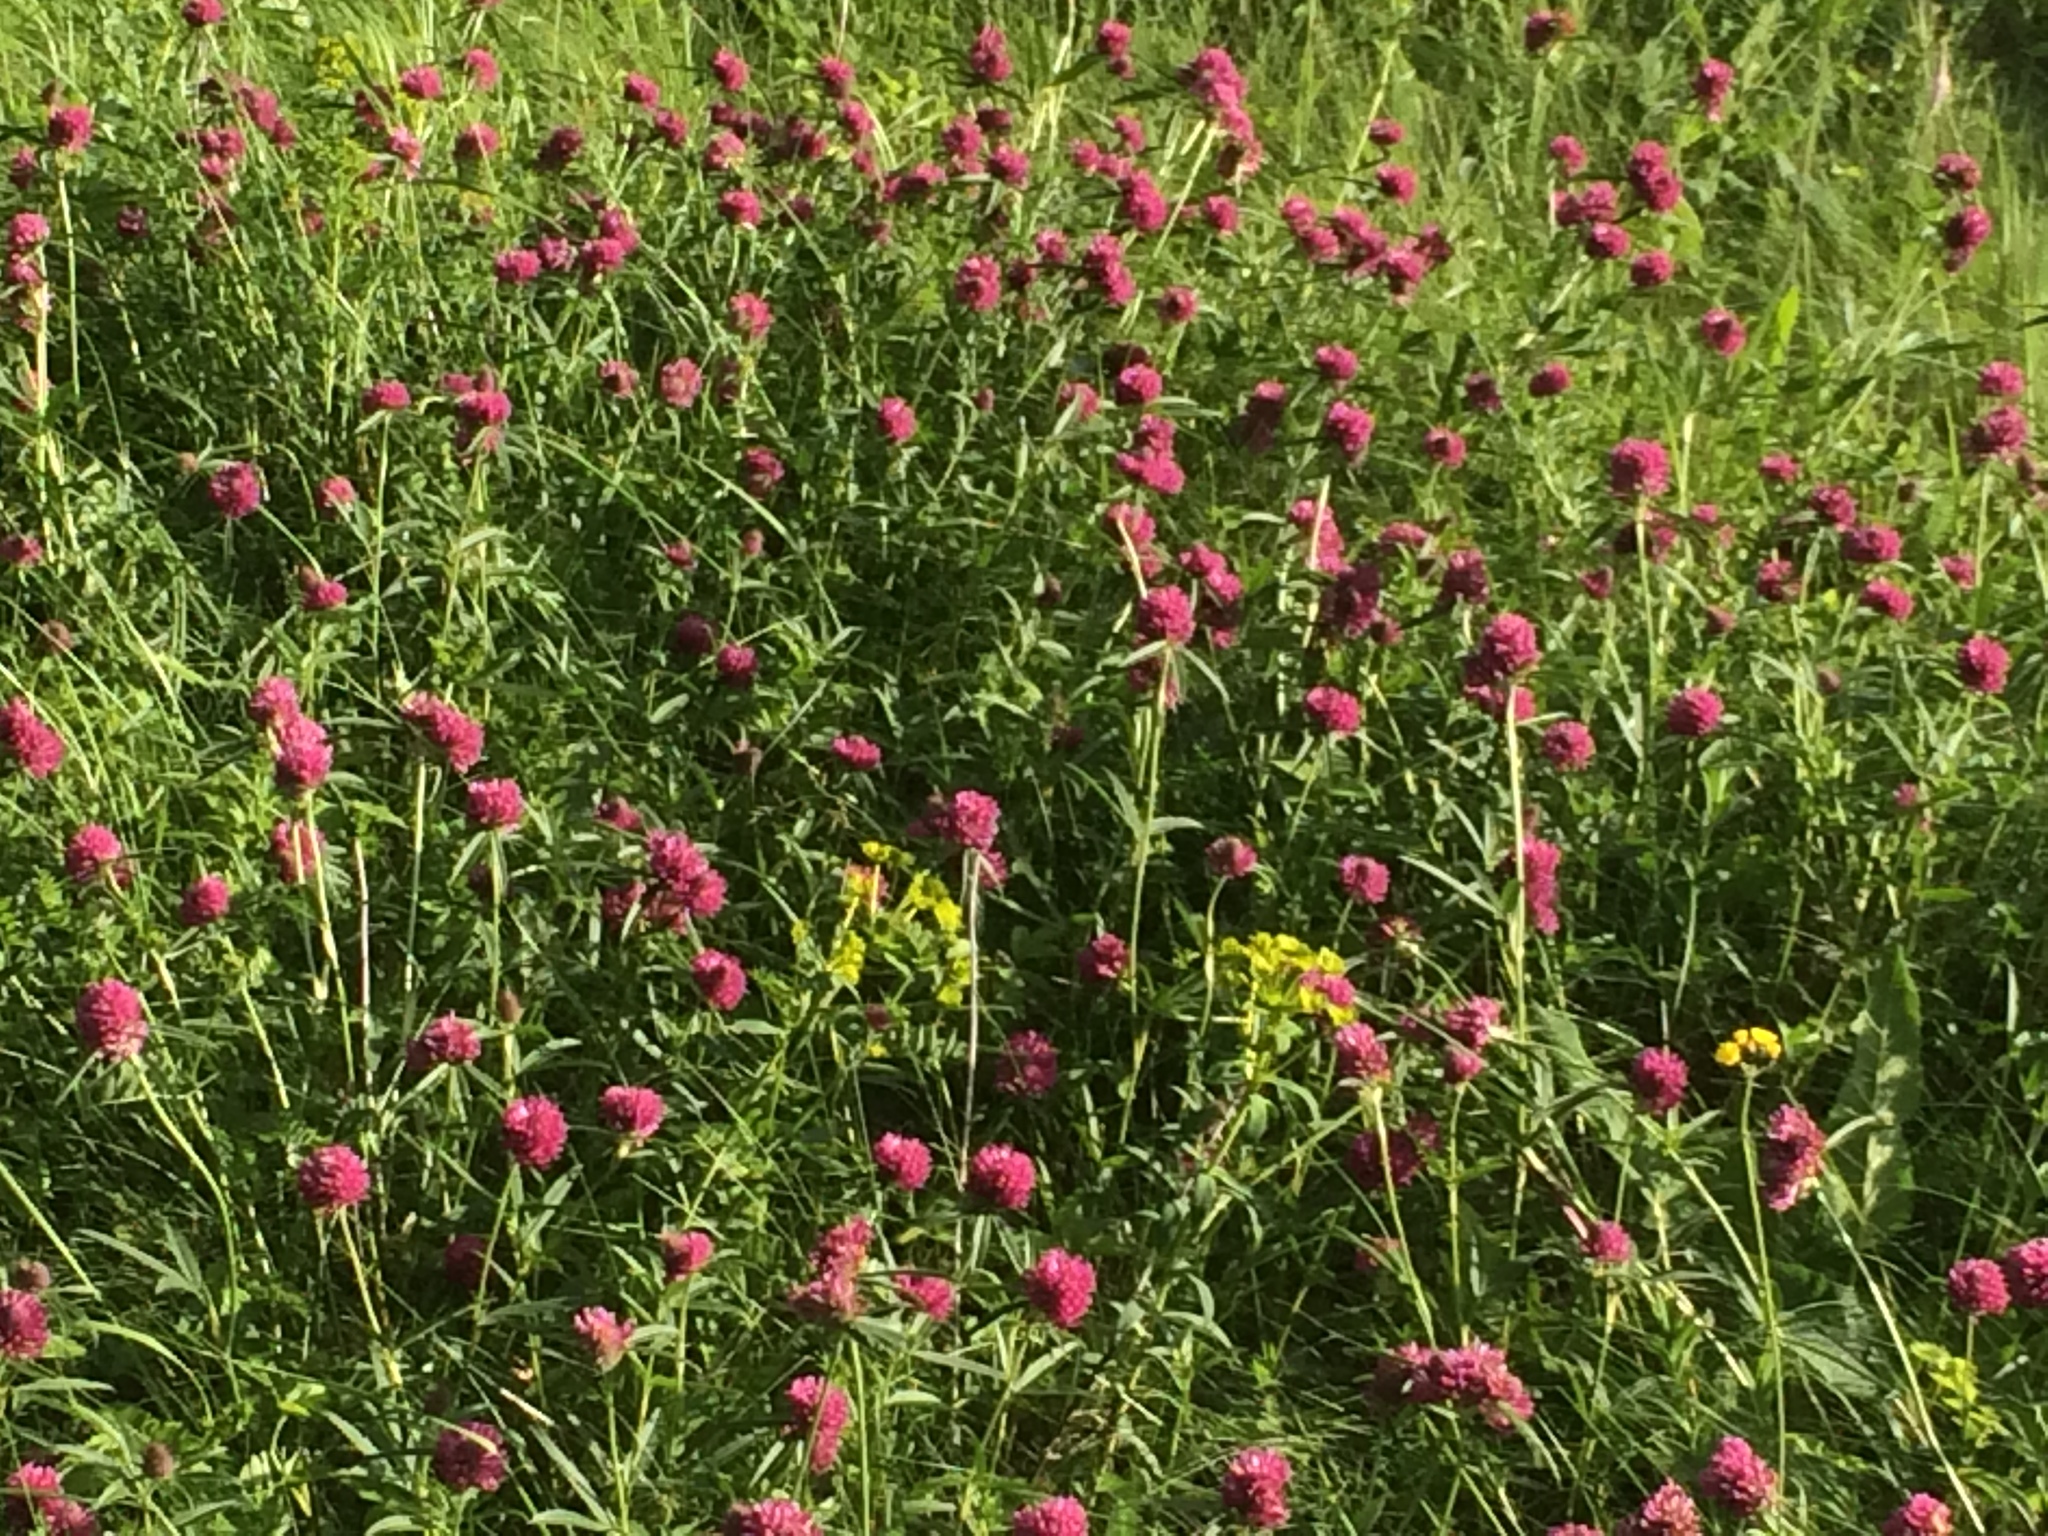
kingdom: Plantae
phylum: Tracheophyta
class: Magnoliopsida
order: Fabales
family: Fabaceae
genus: Trifolium
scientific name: Trifolium alpestre
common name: Owl-head clover
